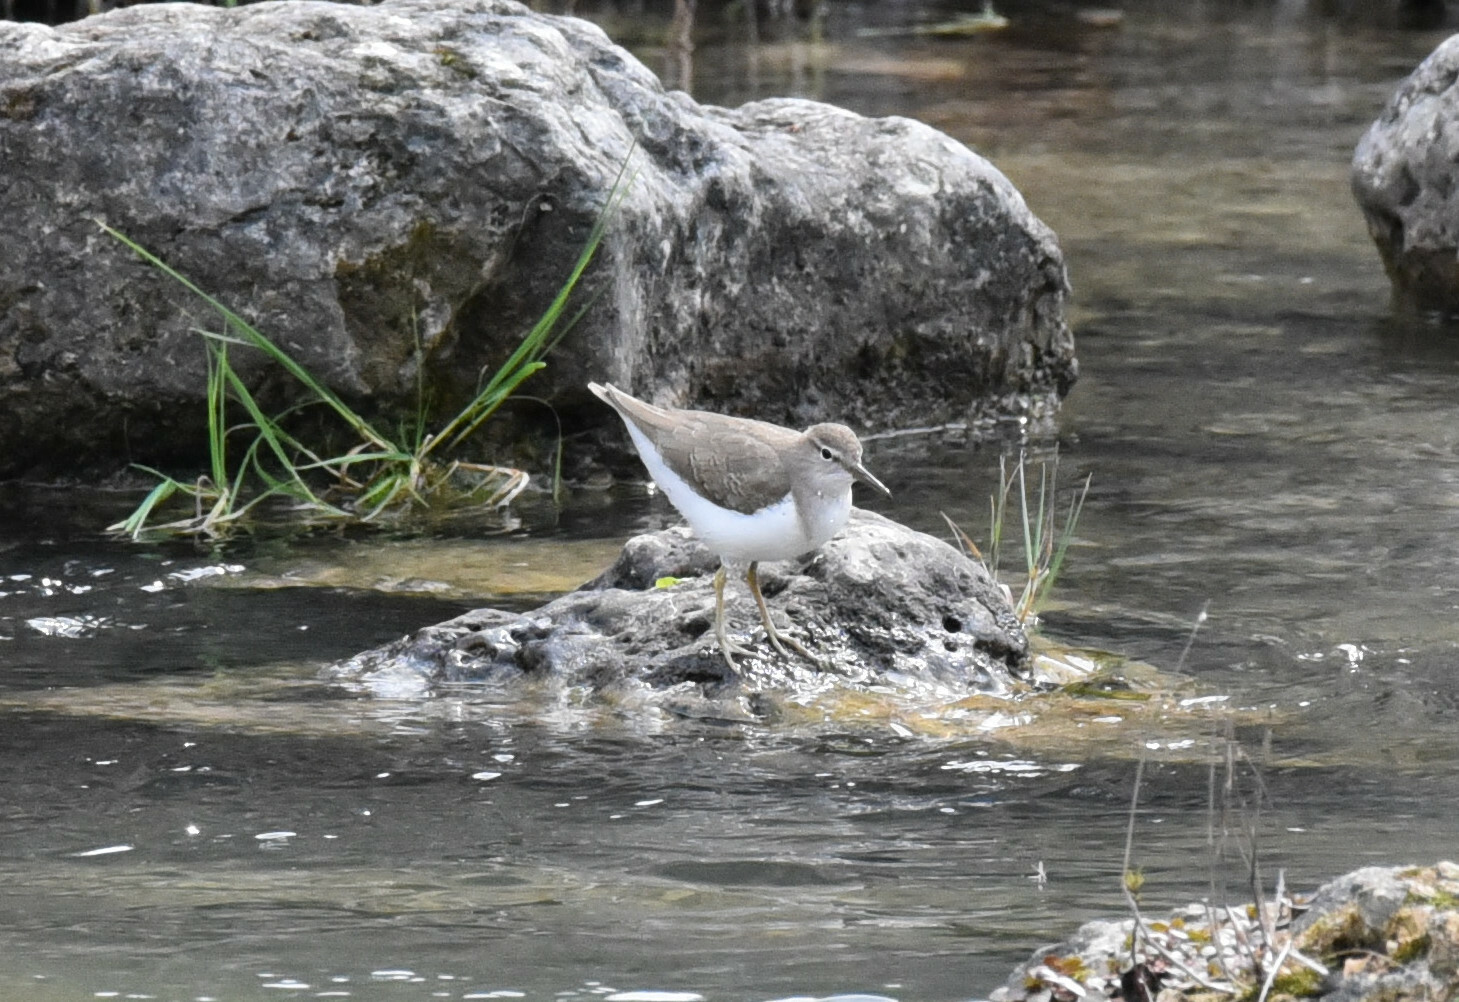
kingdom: Animalia
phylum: Chordata
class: Aves
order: Charadriiformes
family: Scolopacidae
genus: Actitis
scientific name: Actitis macularius
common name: Spotted sandpiper
